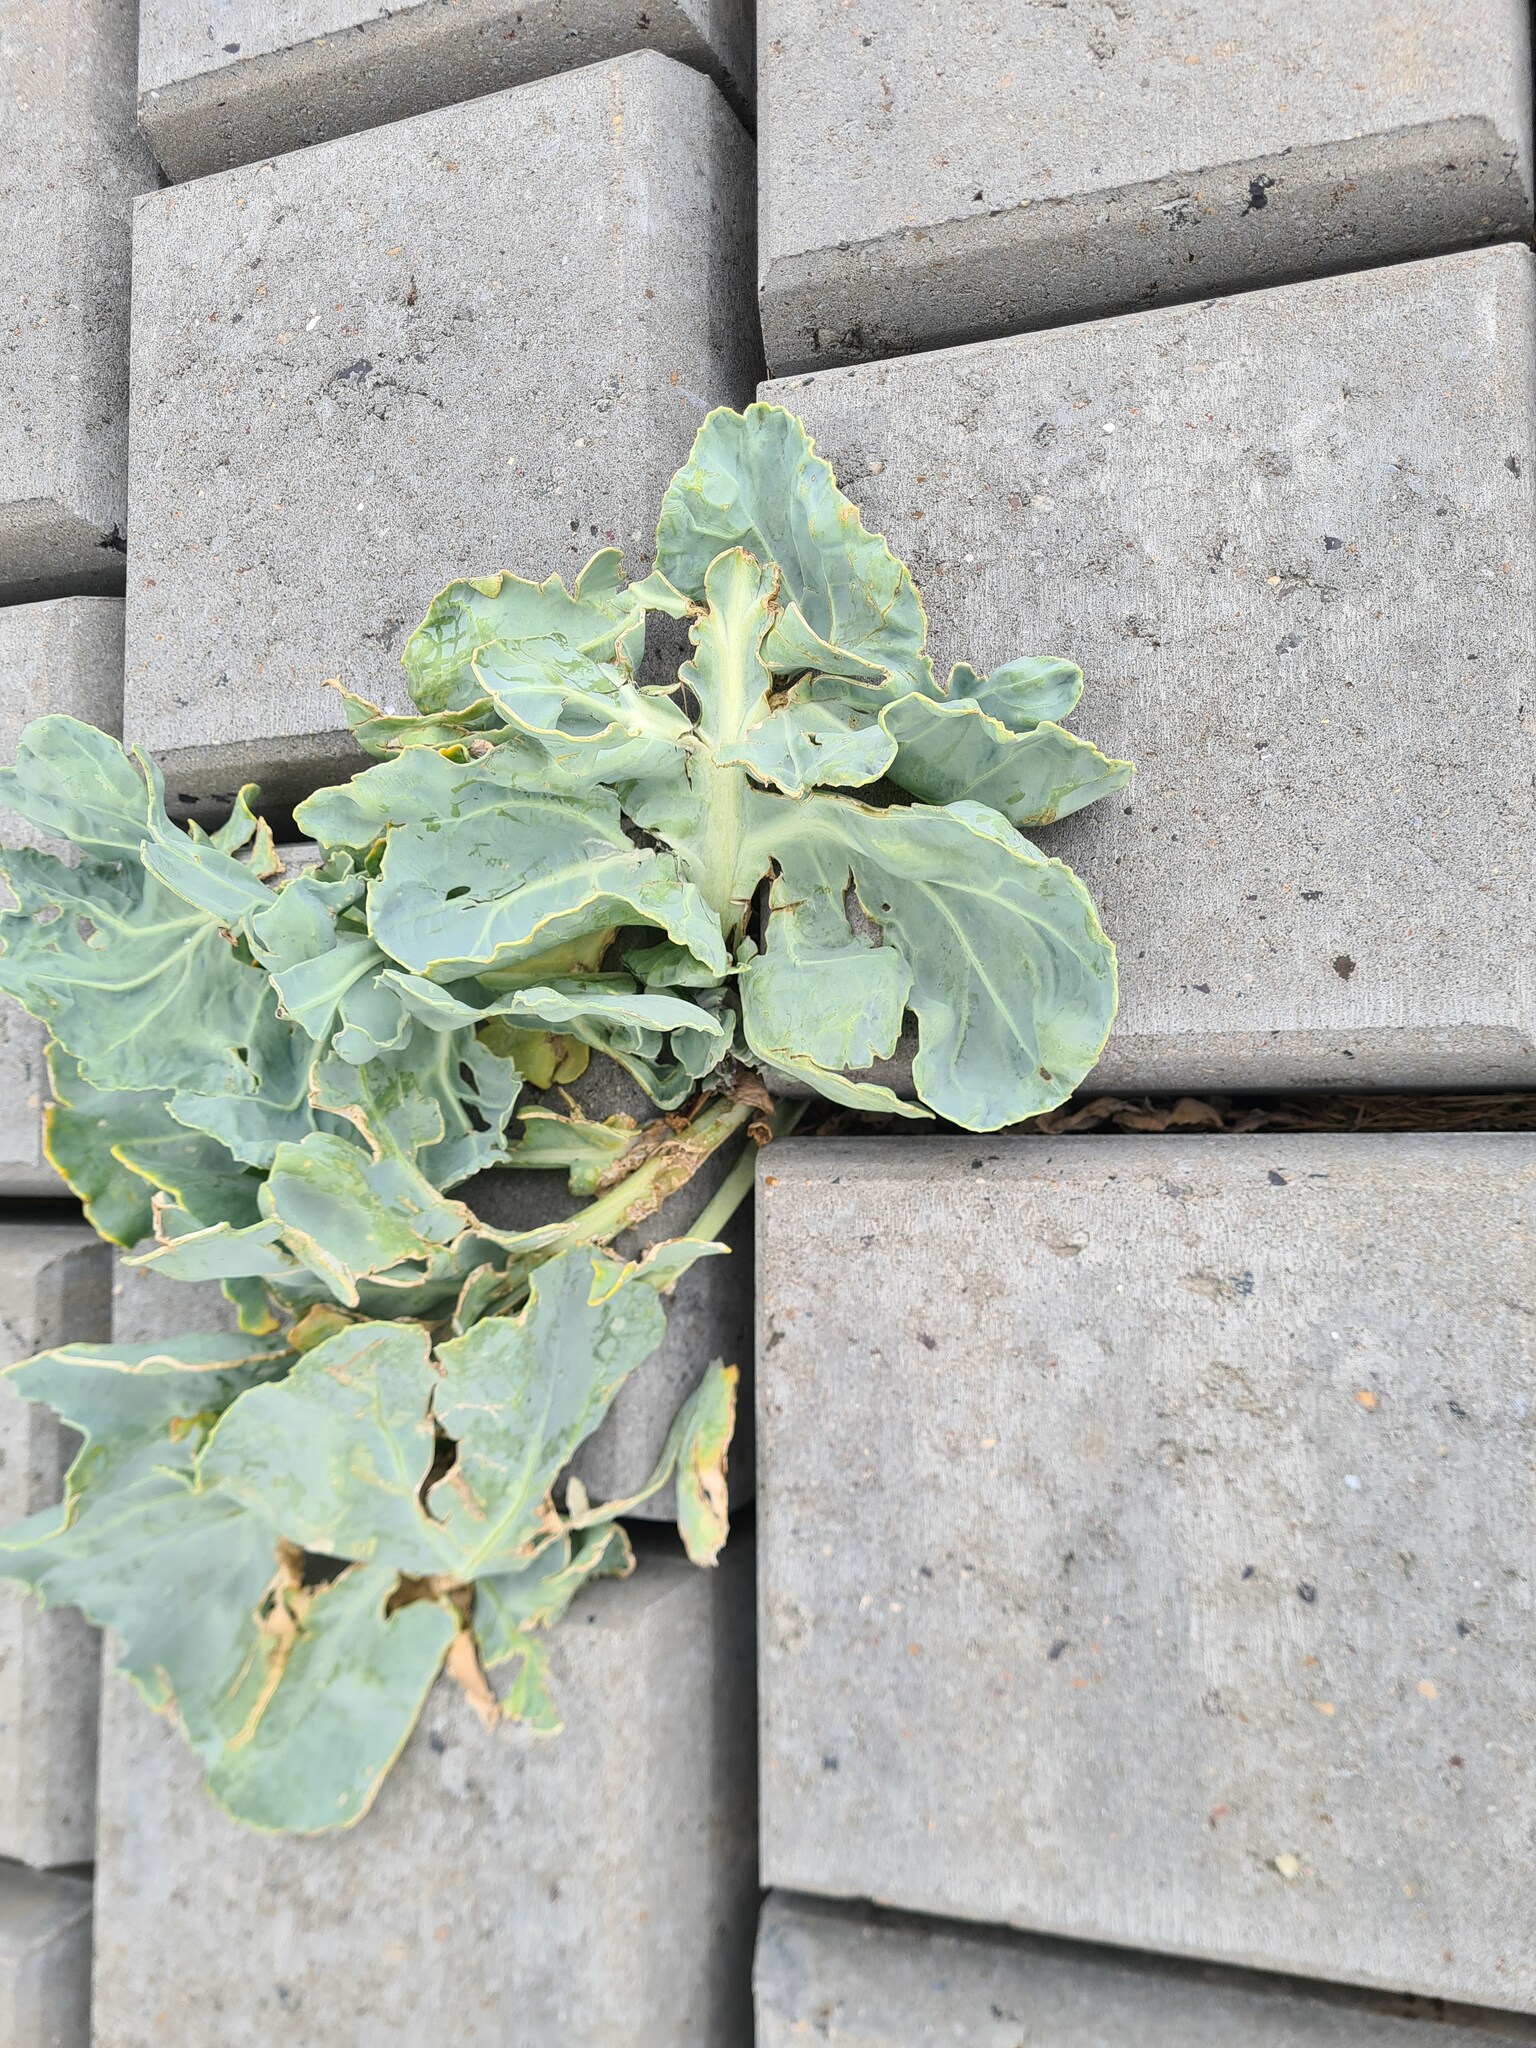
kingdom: Plantae
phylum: Tracheophyta
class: Magnoliopsida
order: Brassicales
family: Brassicaceae
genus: Crambe
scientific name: Crambe maritima
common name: Sea-kale
